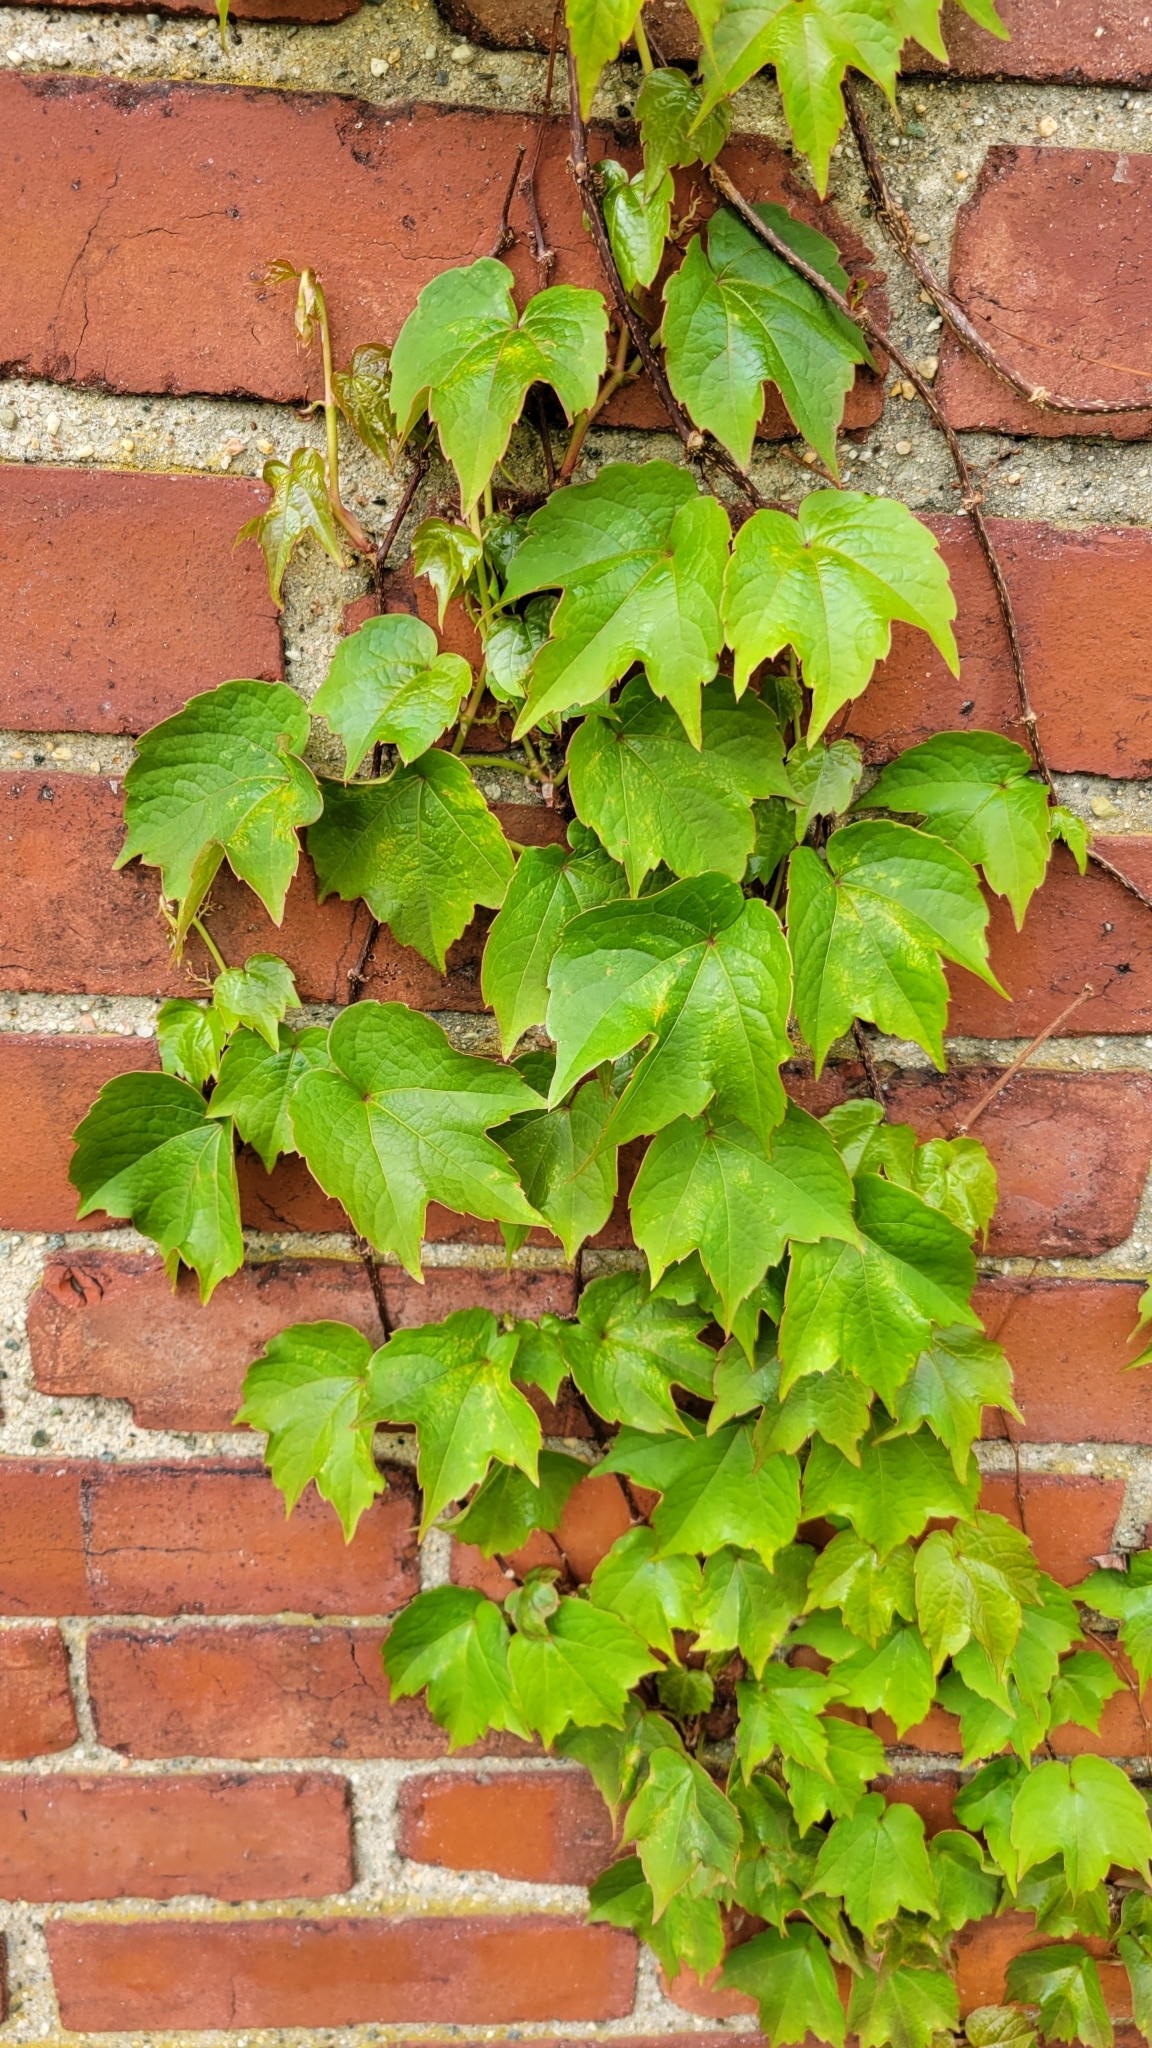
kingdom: Plantae
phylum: Tracheophyta
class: Magnoliopsida
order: Vitales
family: Vitaceae
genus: Parthenocissus
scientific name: Parthenocissus tricuspidata
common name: Boston ivy
